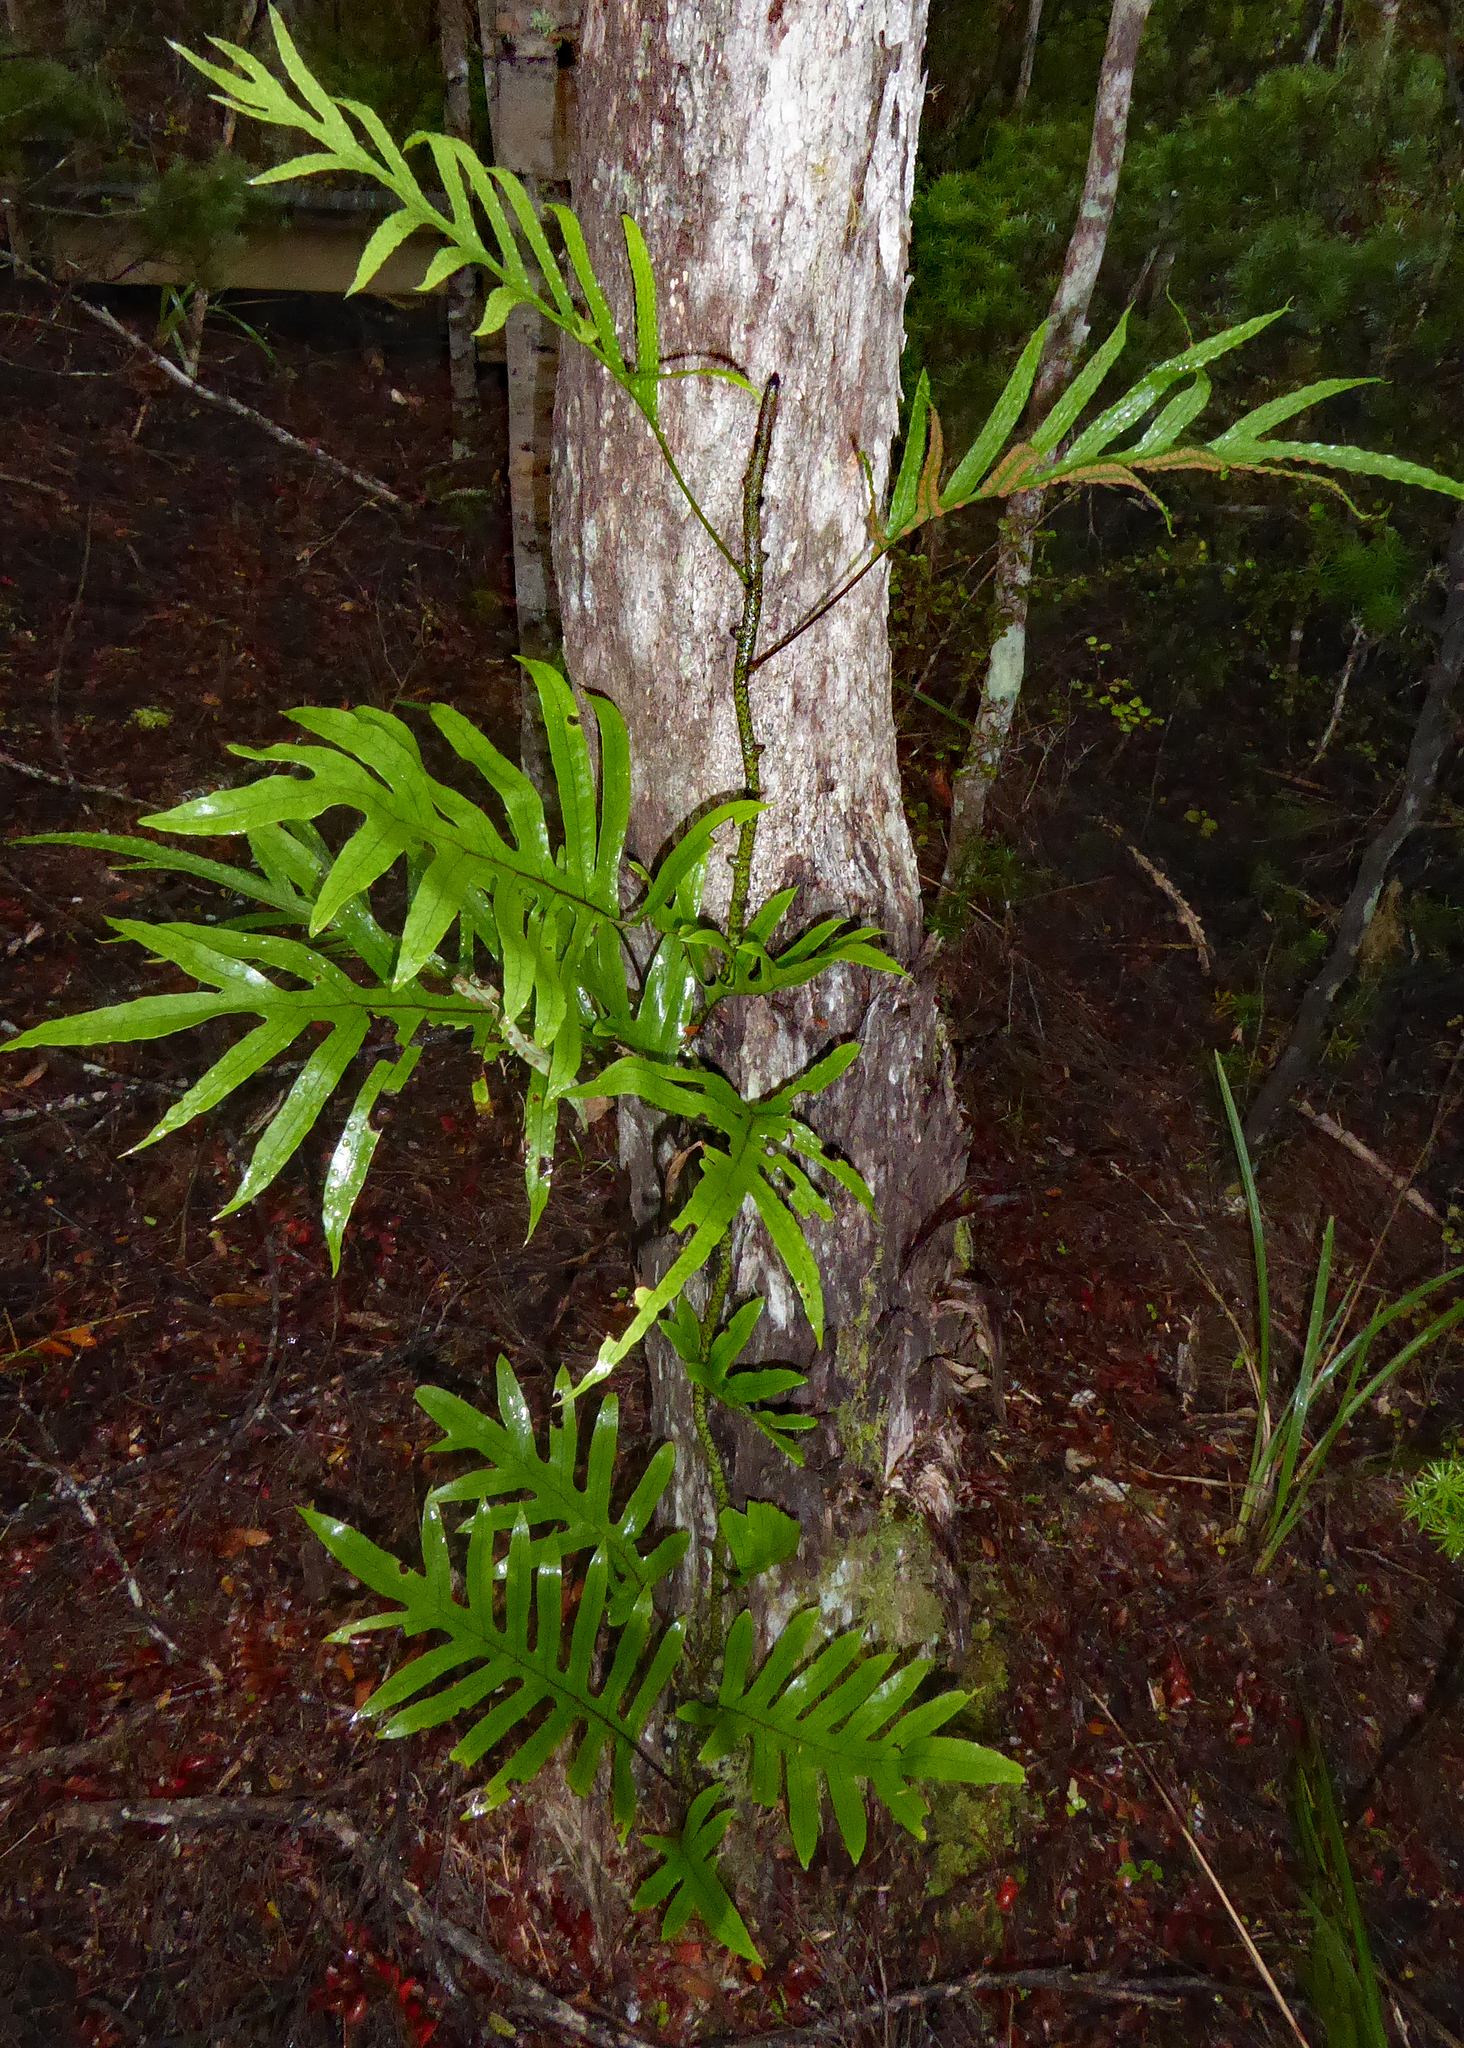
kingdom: Plantae
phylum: Tracheophyta
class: Polypodiopsida
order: Polypodiales
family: Polypodiaceae
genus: Lecanopteris
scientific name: Lecanopteris pustulata
